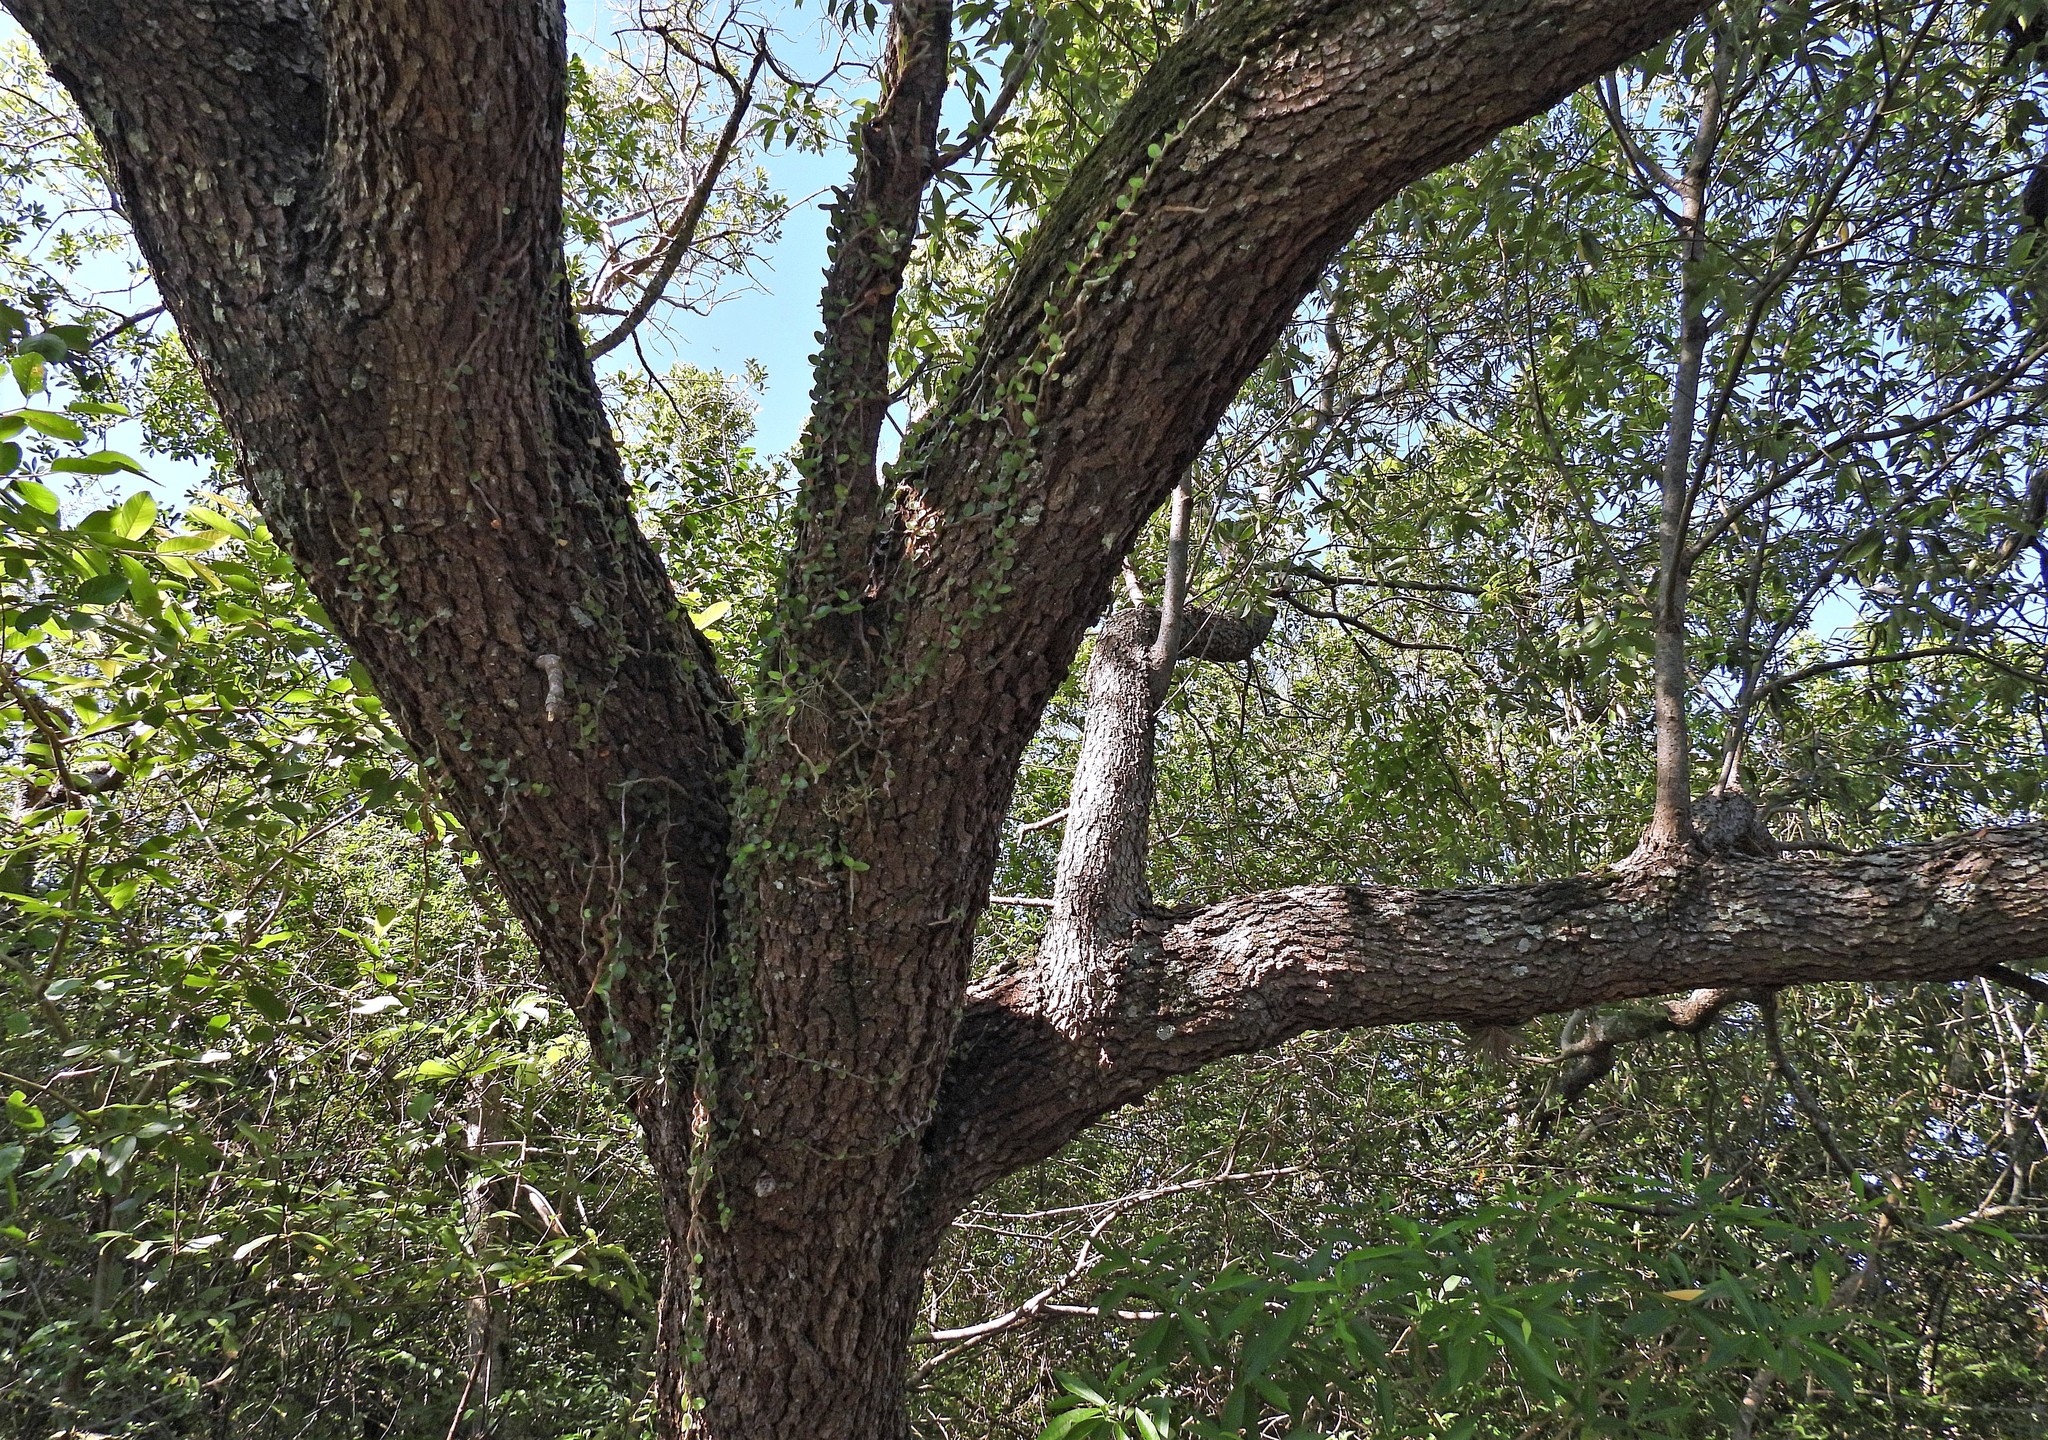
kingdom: Plantae
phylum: Tracheophyta
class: Magnoliopsida
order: Laurales
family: Lauraceae
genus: Ocotea
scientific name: Ocotea acutifolia
